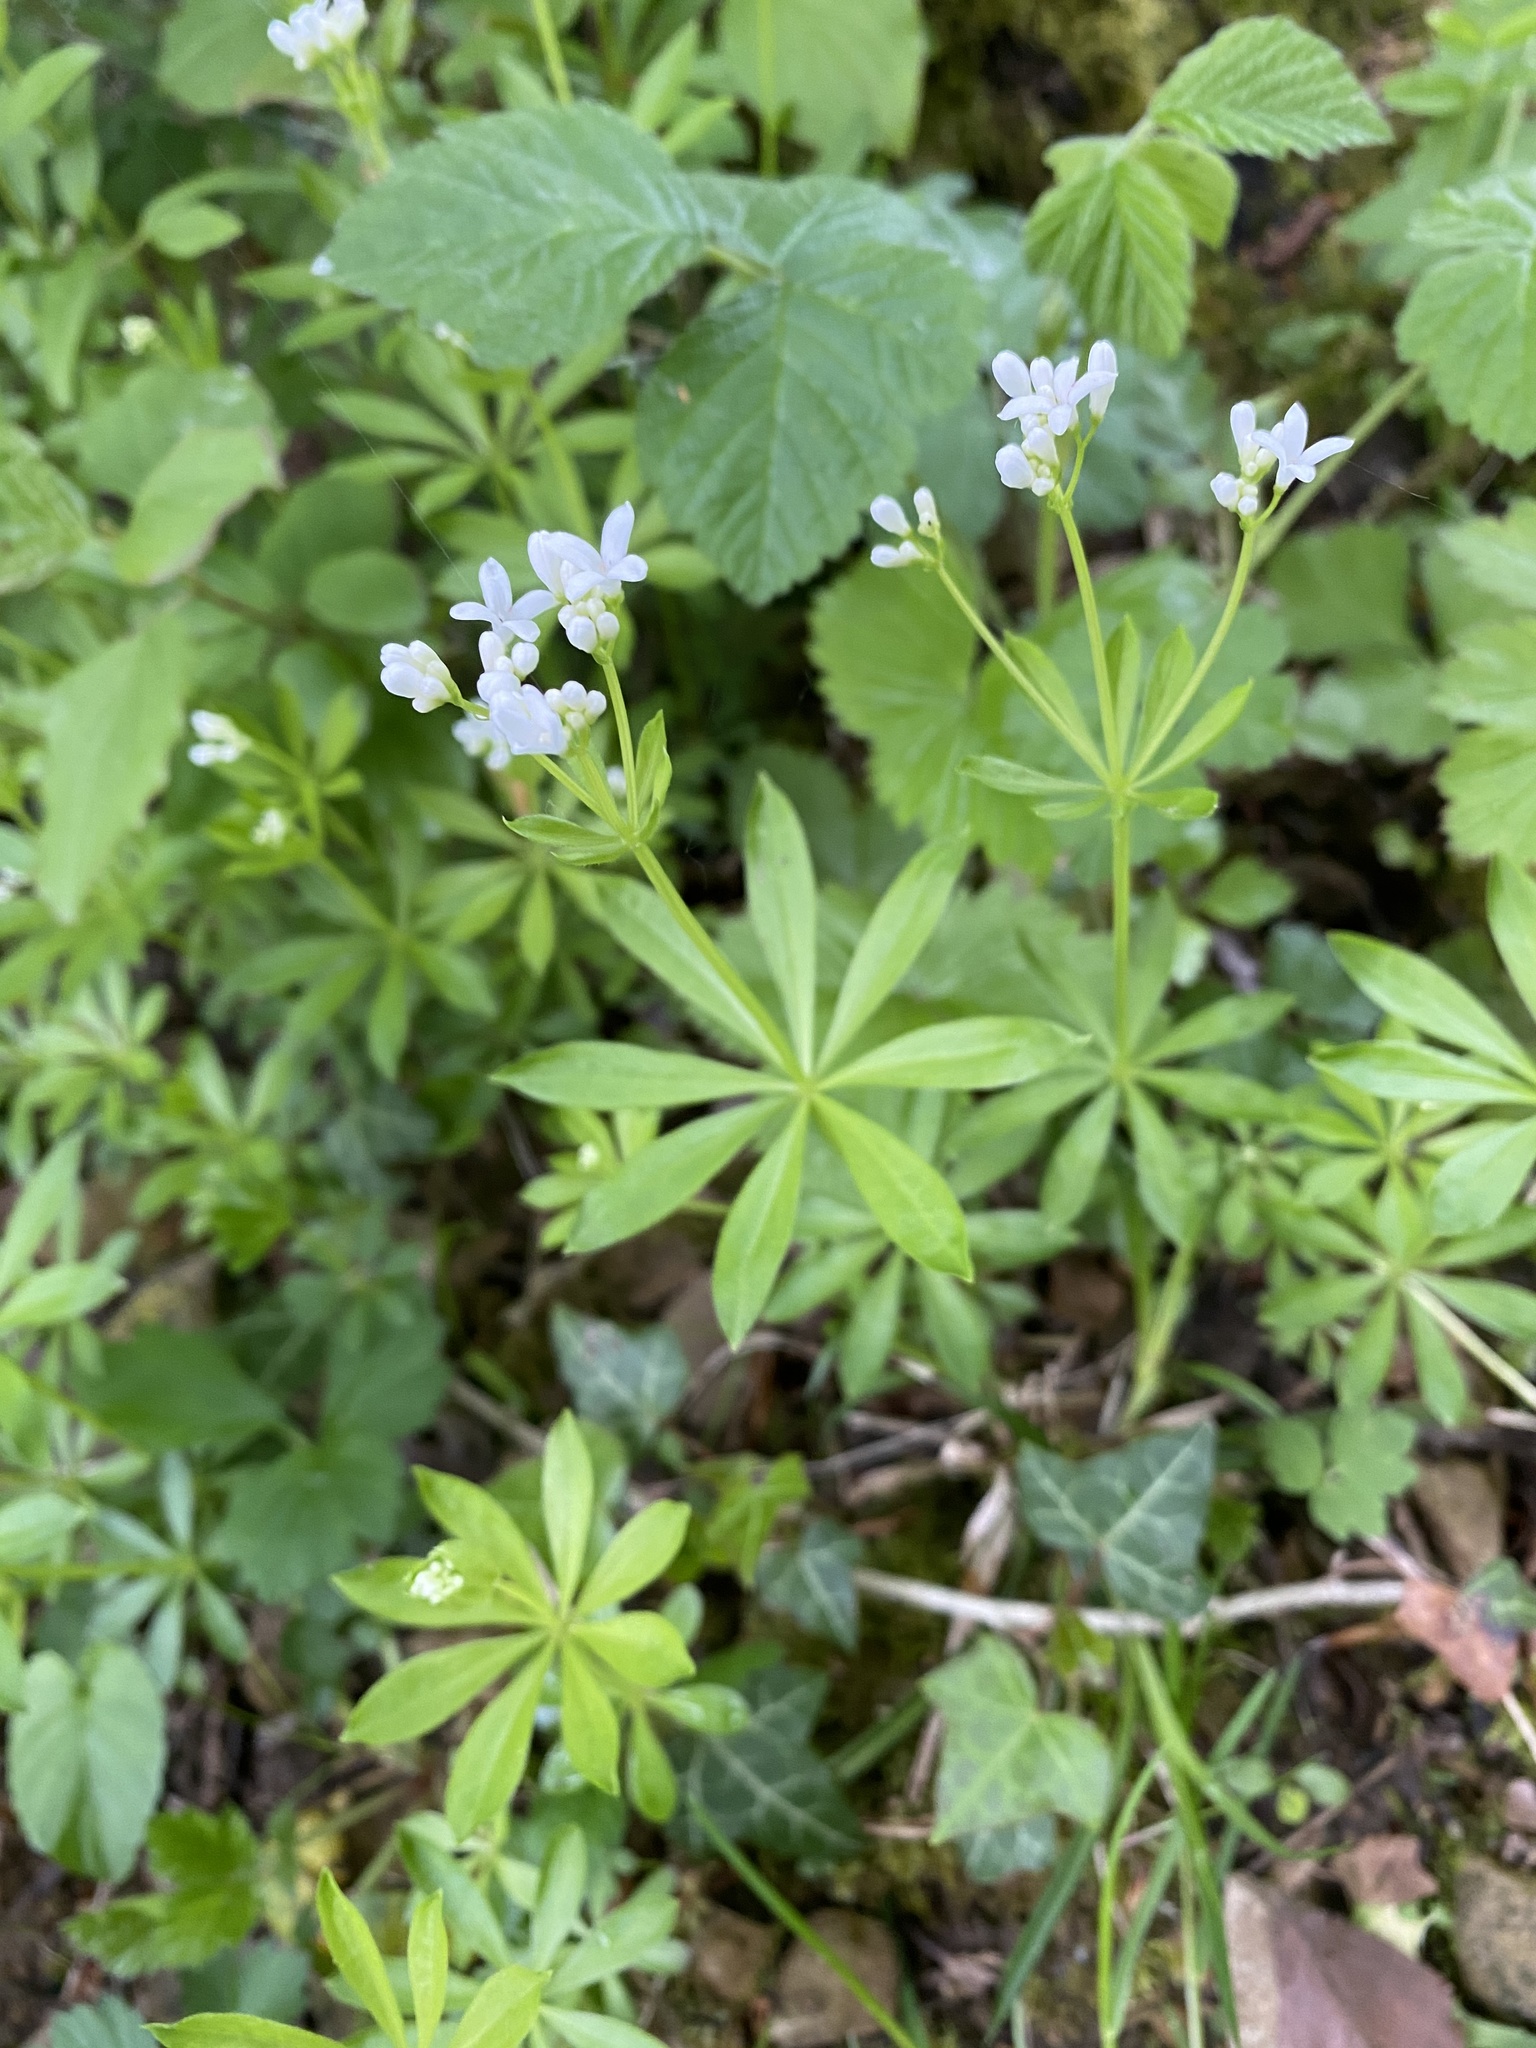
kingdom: Plantae
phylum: Tracheophyta
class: Magnoliopsida
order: Gentianales
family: Rubiaceae
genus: Galium
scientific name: Galium odoratum
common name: Sweet woodruff
